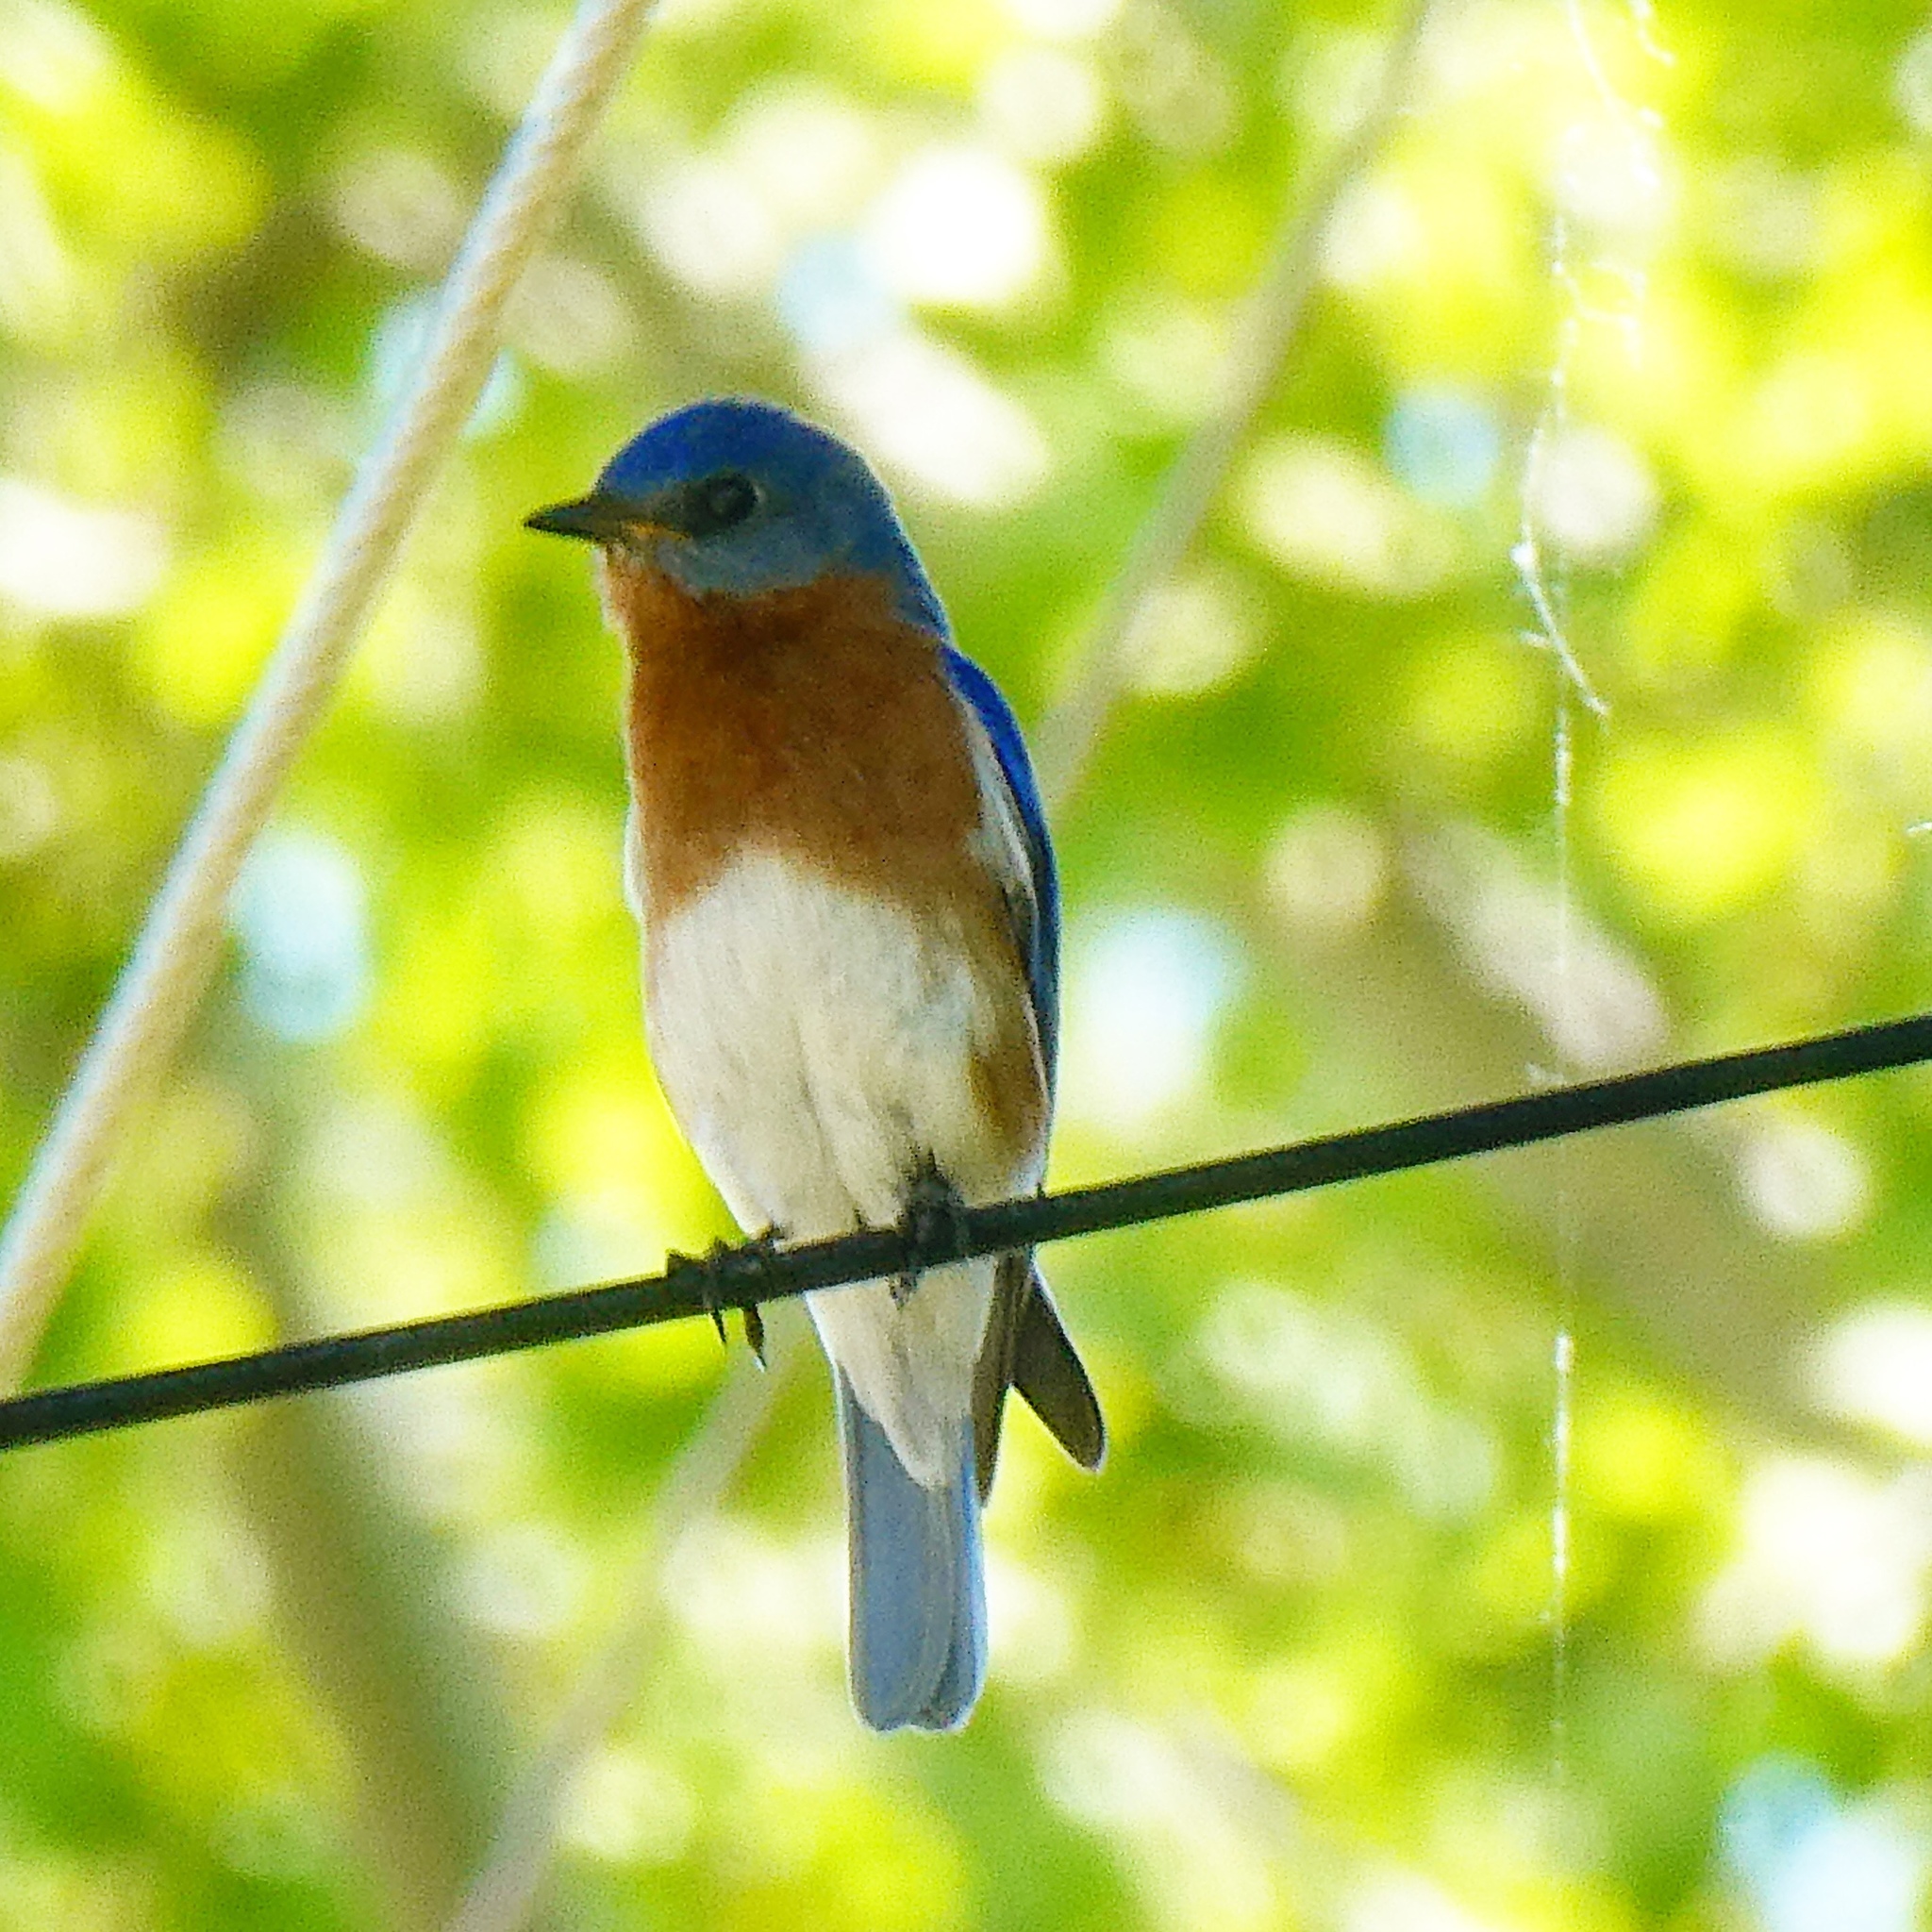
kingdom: Animalia
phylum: Chordata
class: Aves
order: Passeriformes
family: Turdidae
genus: Sialia
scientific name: Sialia sialis
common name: Eastern bluebird
